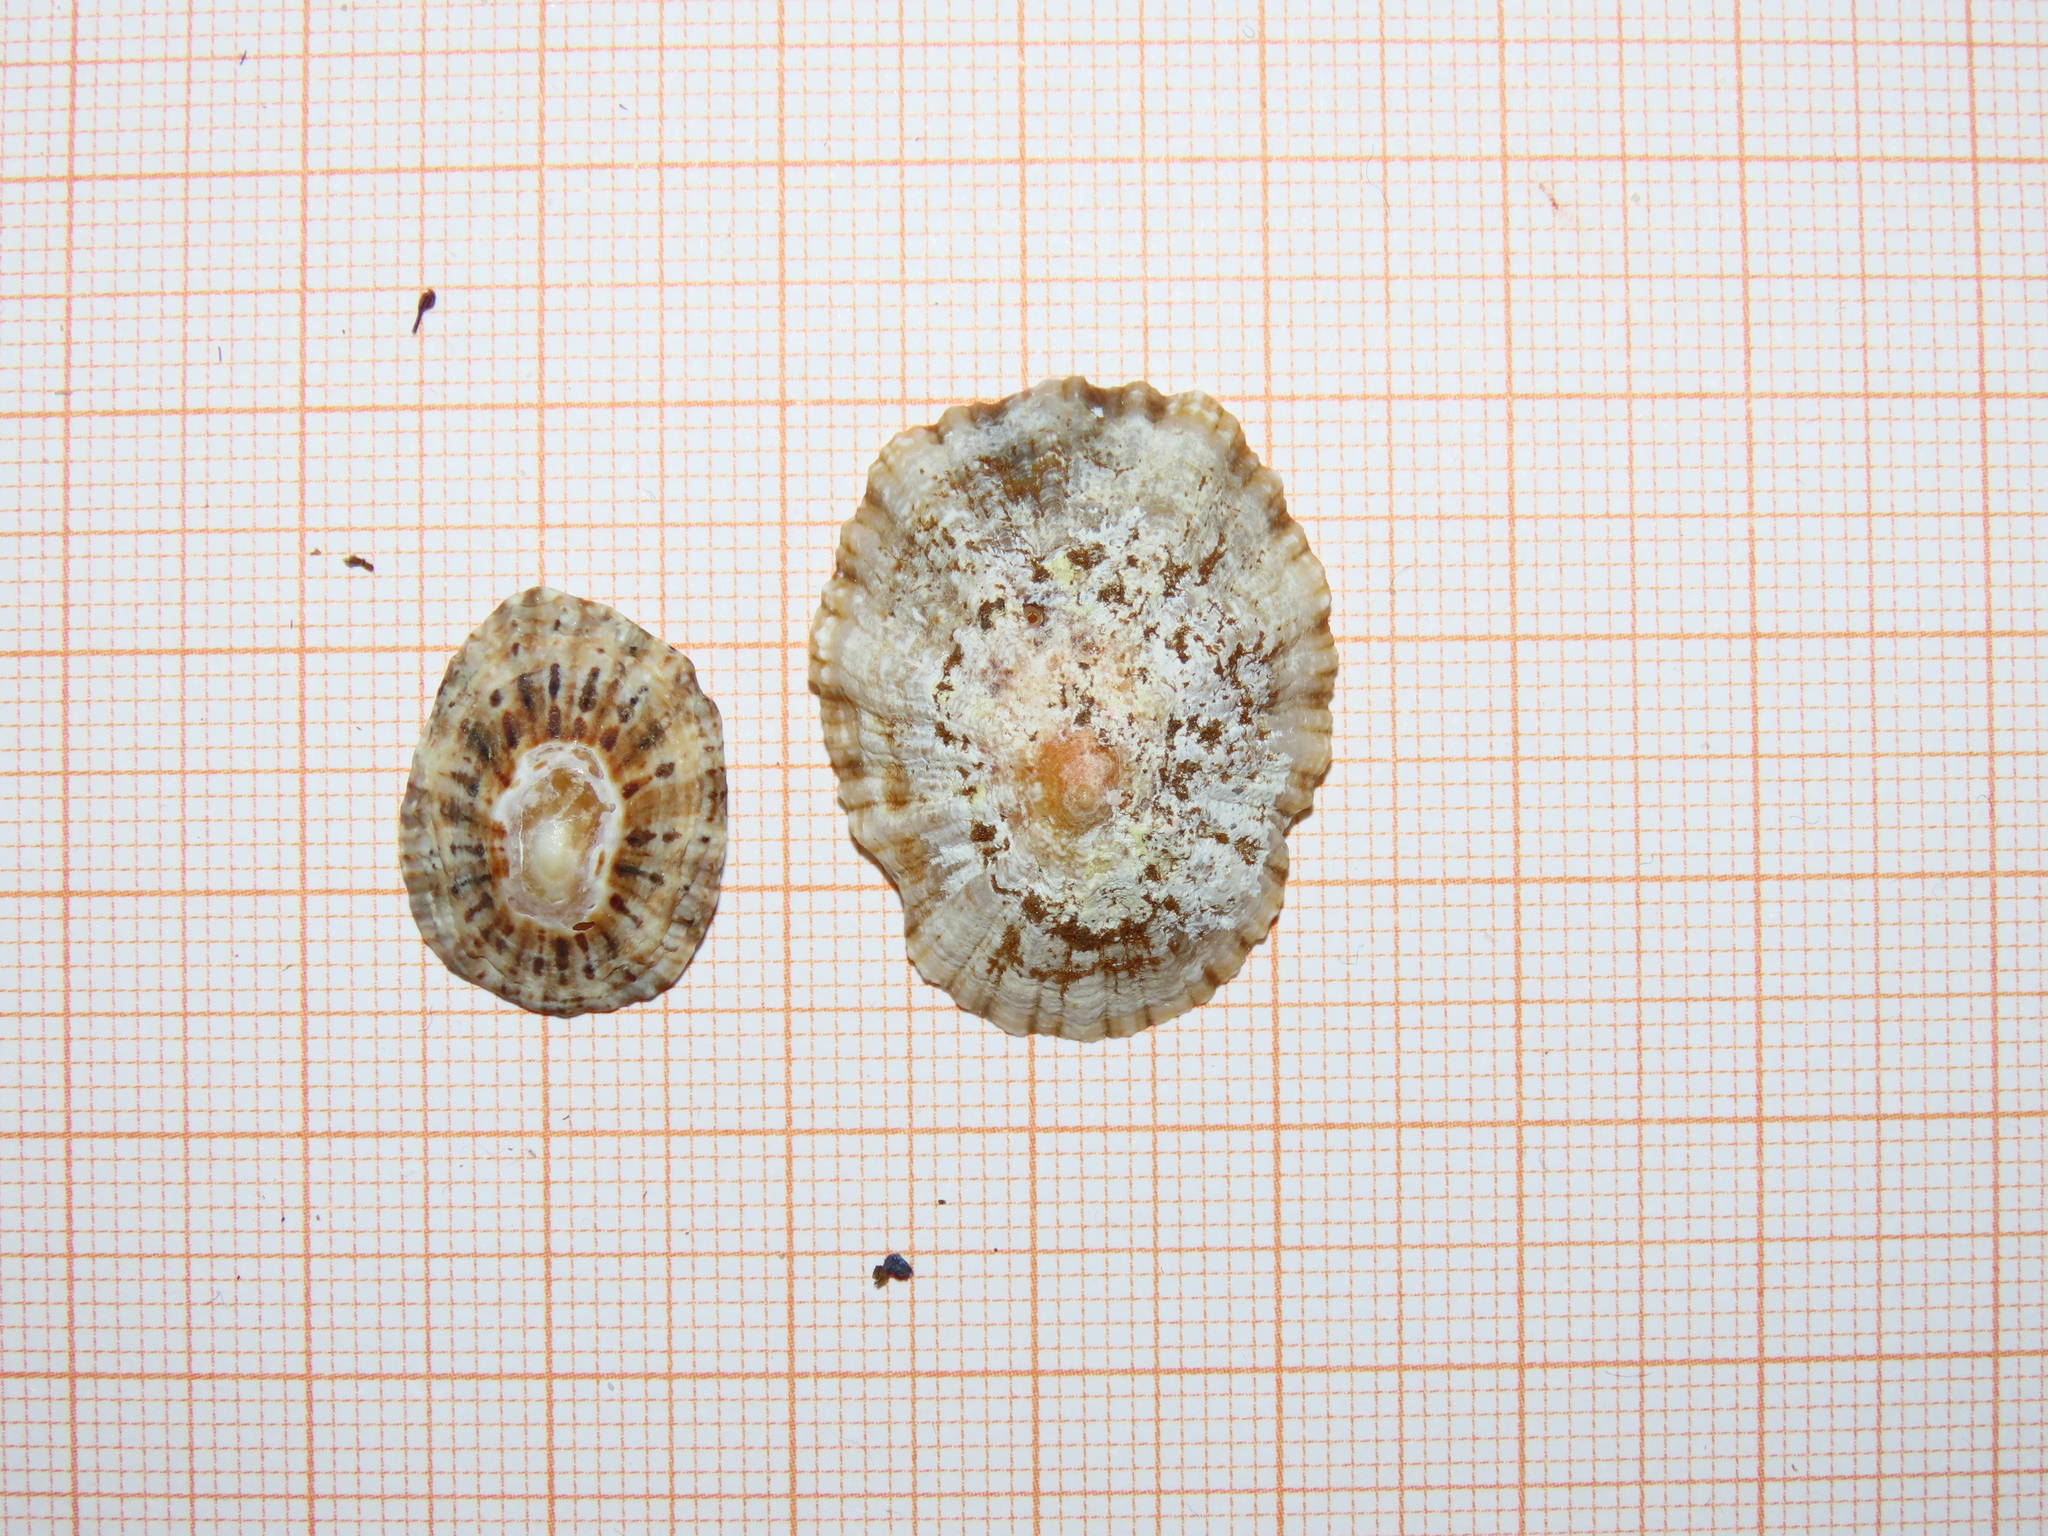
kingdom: Animalia
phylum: Mollusca
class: Gastropoda
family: Patellidae
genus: Patella
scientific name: Patella rustica
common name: Lusitanian limpet
